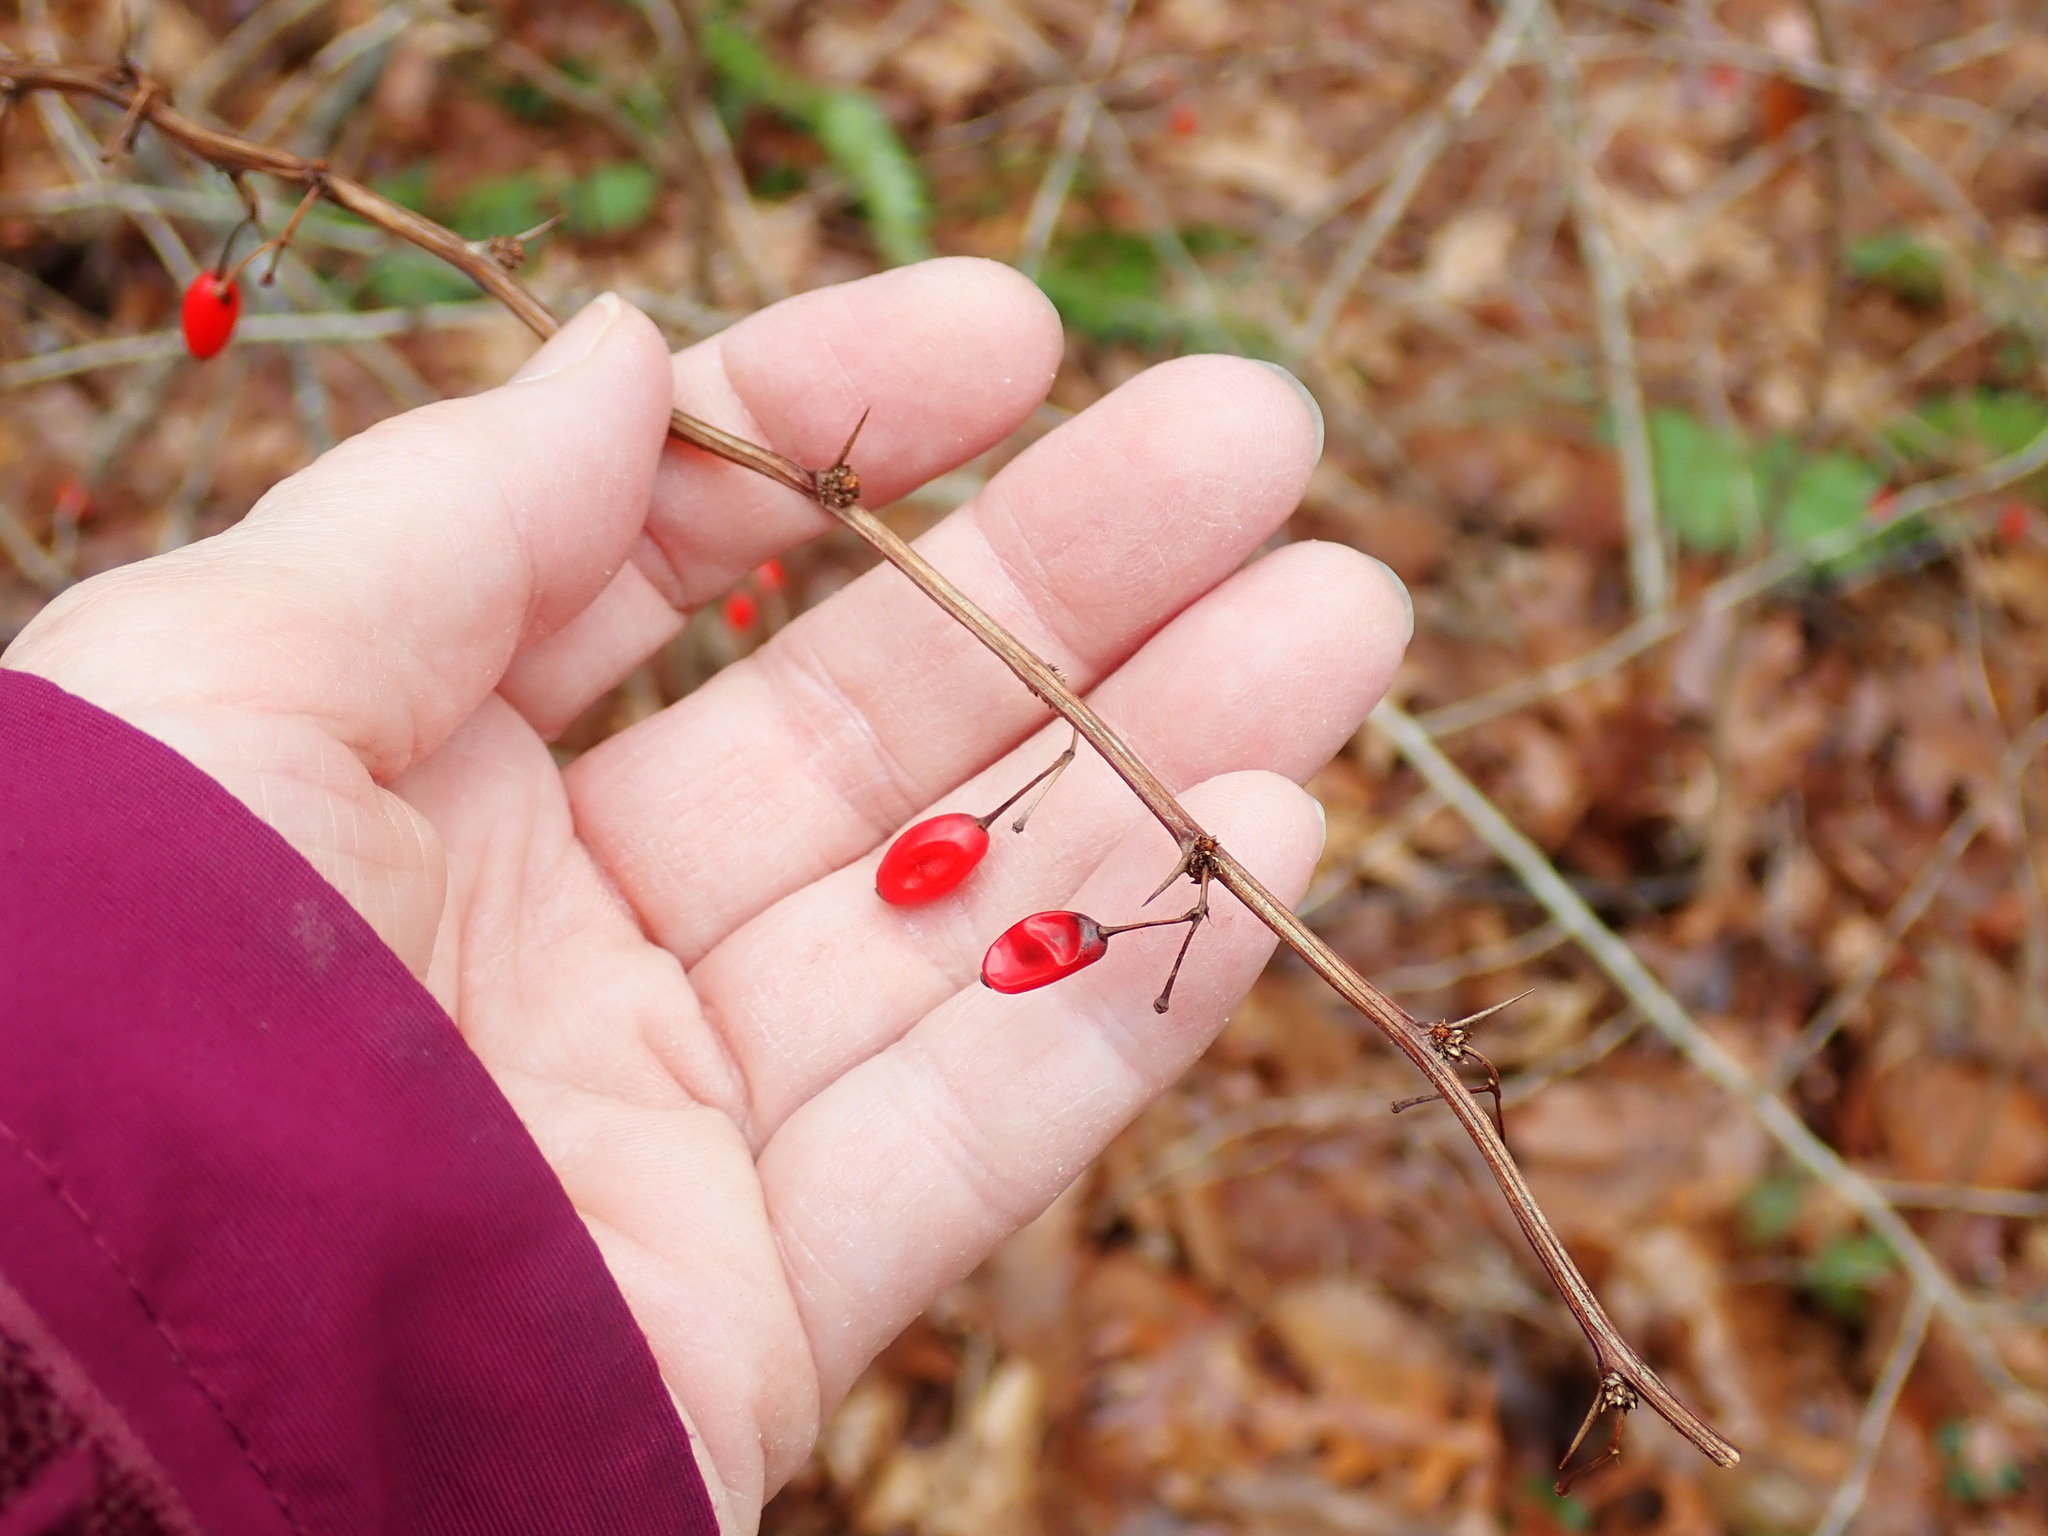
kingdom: Plantae
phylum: Tracheophyta
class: Magnoliopsida
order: Ranunculales
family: Berberidaceae
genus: Berberis
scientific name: Berberis thunbergii
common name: Japanese barberry
